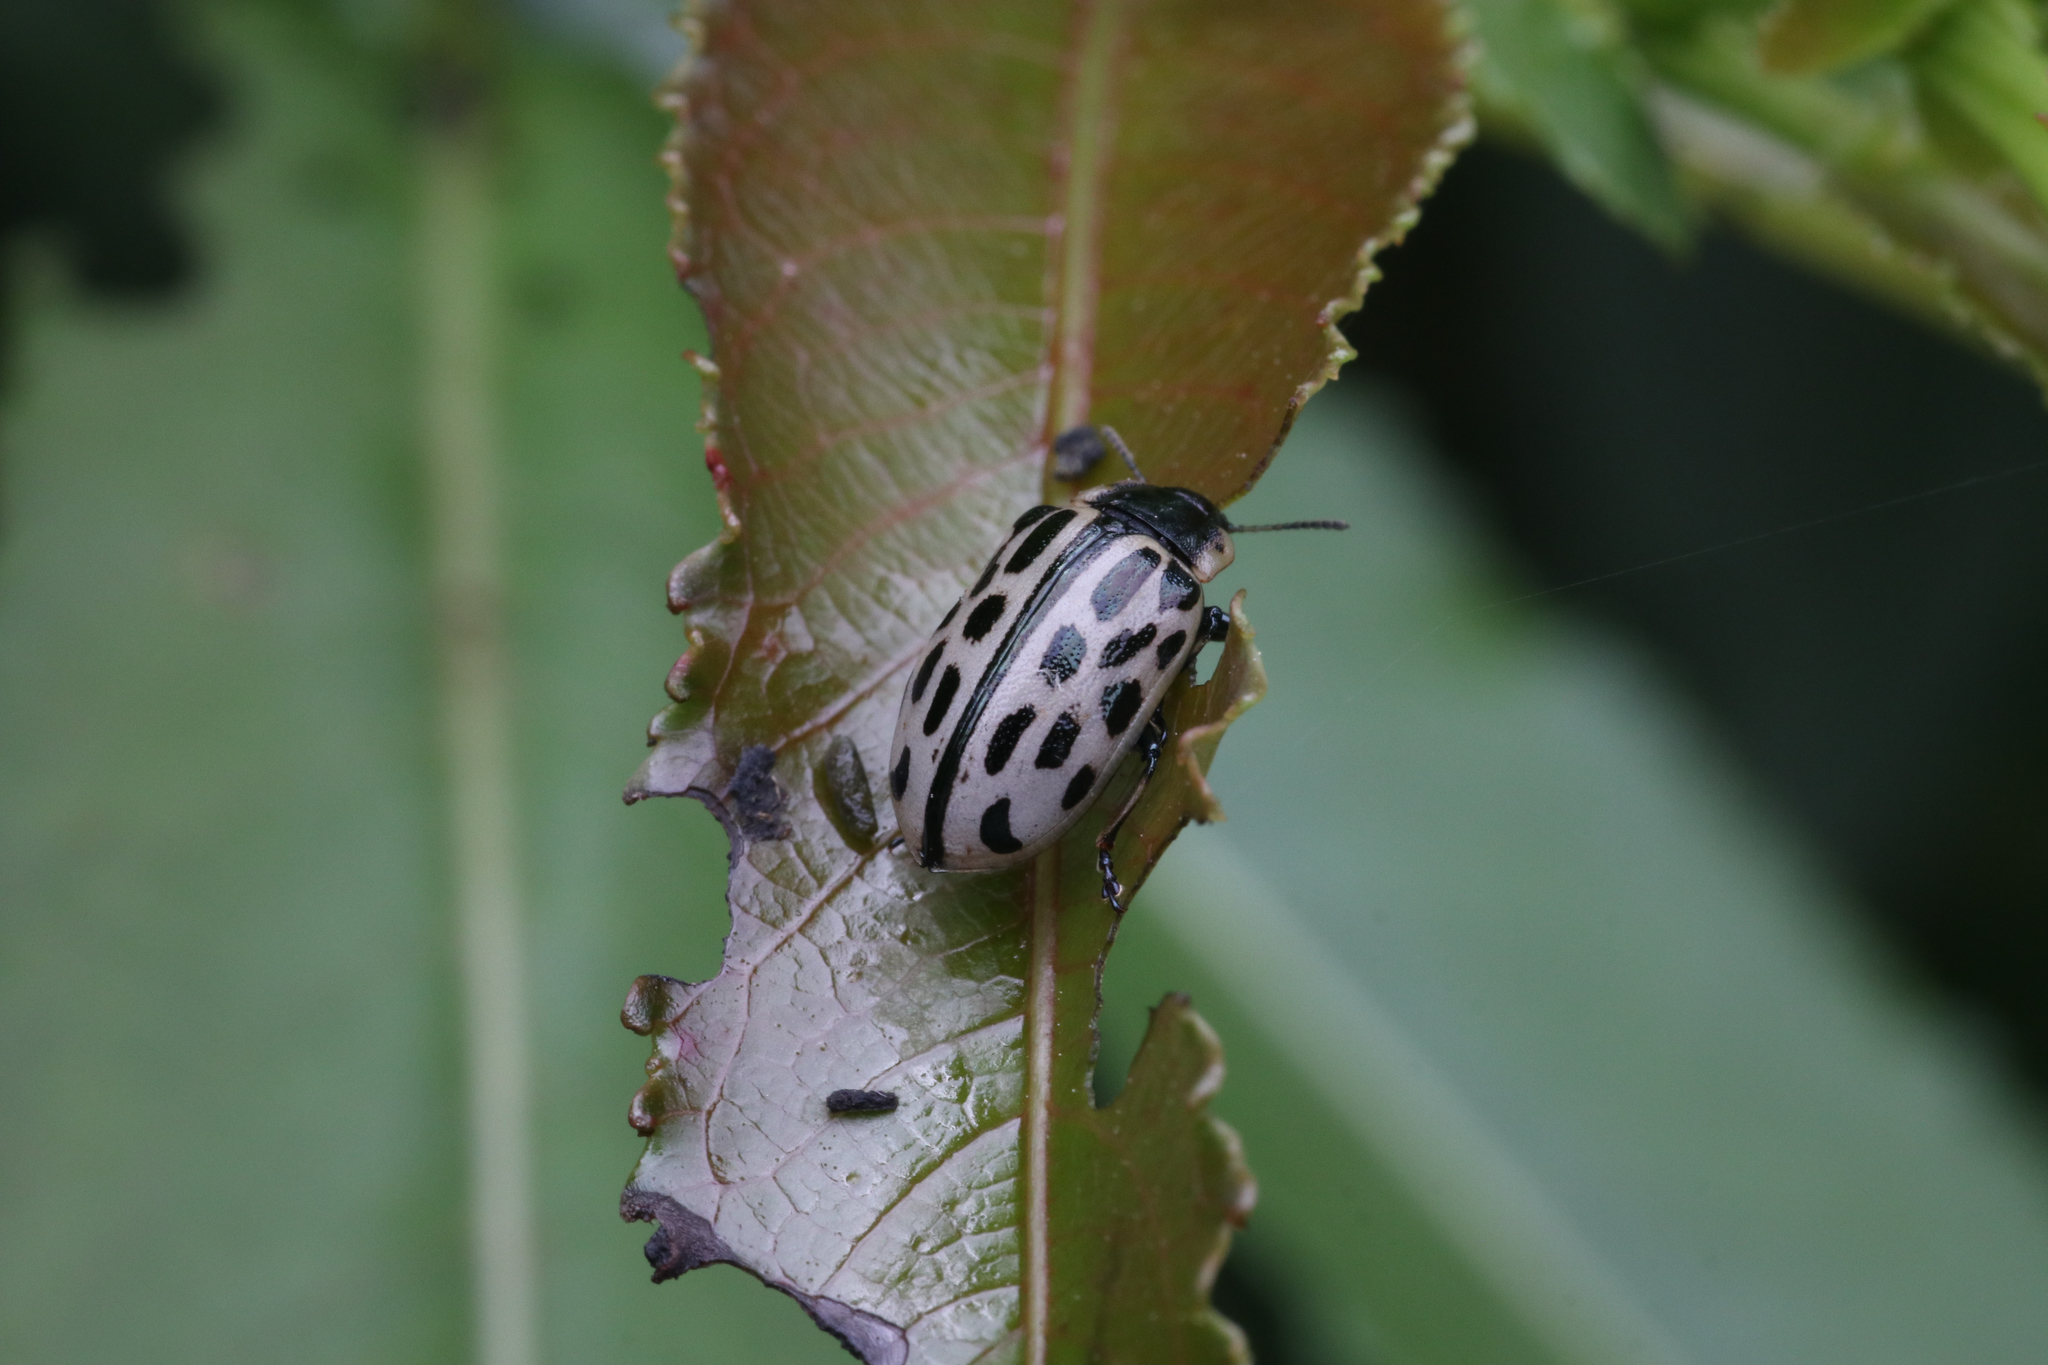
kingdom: Animalia
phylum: Arthropoda
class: Insecta
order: Coleoptera
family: Chrysomelidae
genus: Chrysomela
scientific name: Chrysomela vigintipunctata
